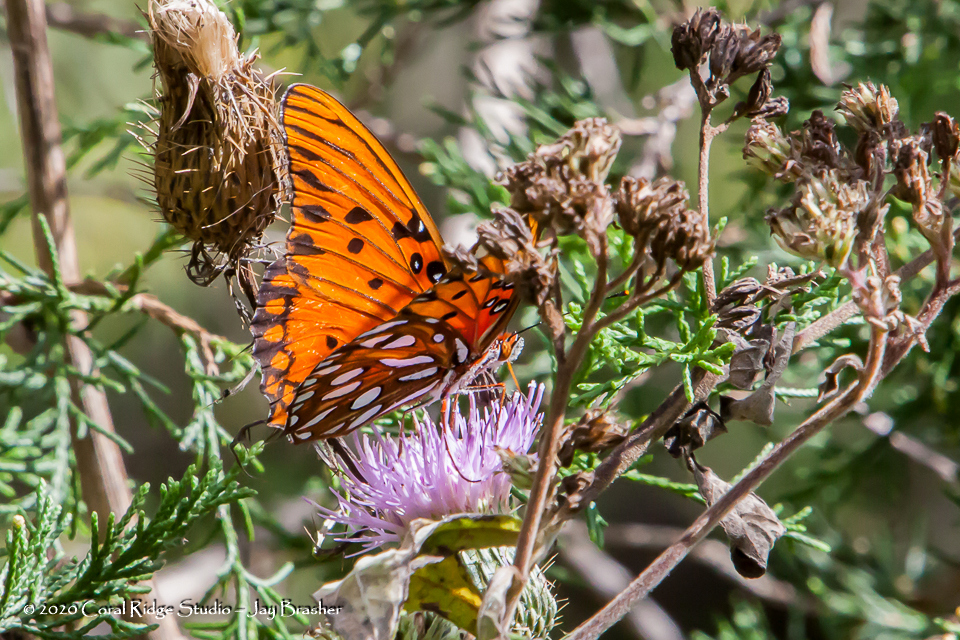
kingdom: Animalia
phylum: Arthropoda
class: Insecta
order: Lepidoptera
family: Nymphalidae
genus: Dione
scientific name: Dione vanillae
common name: Gulf fritillary
